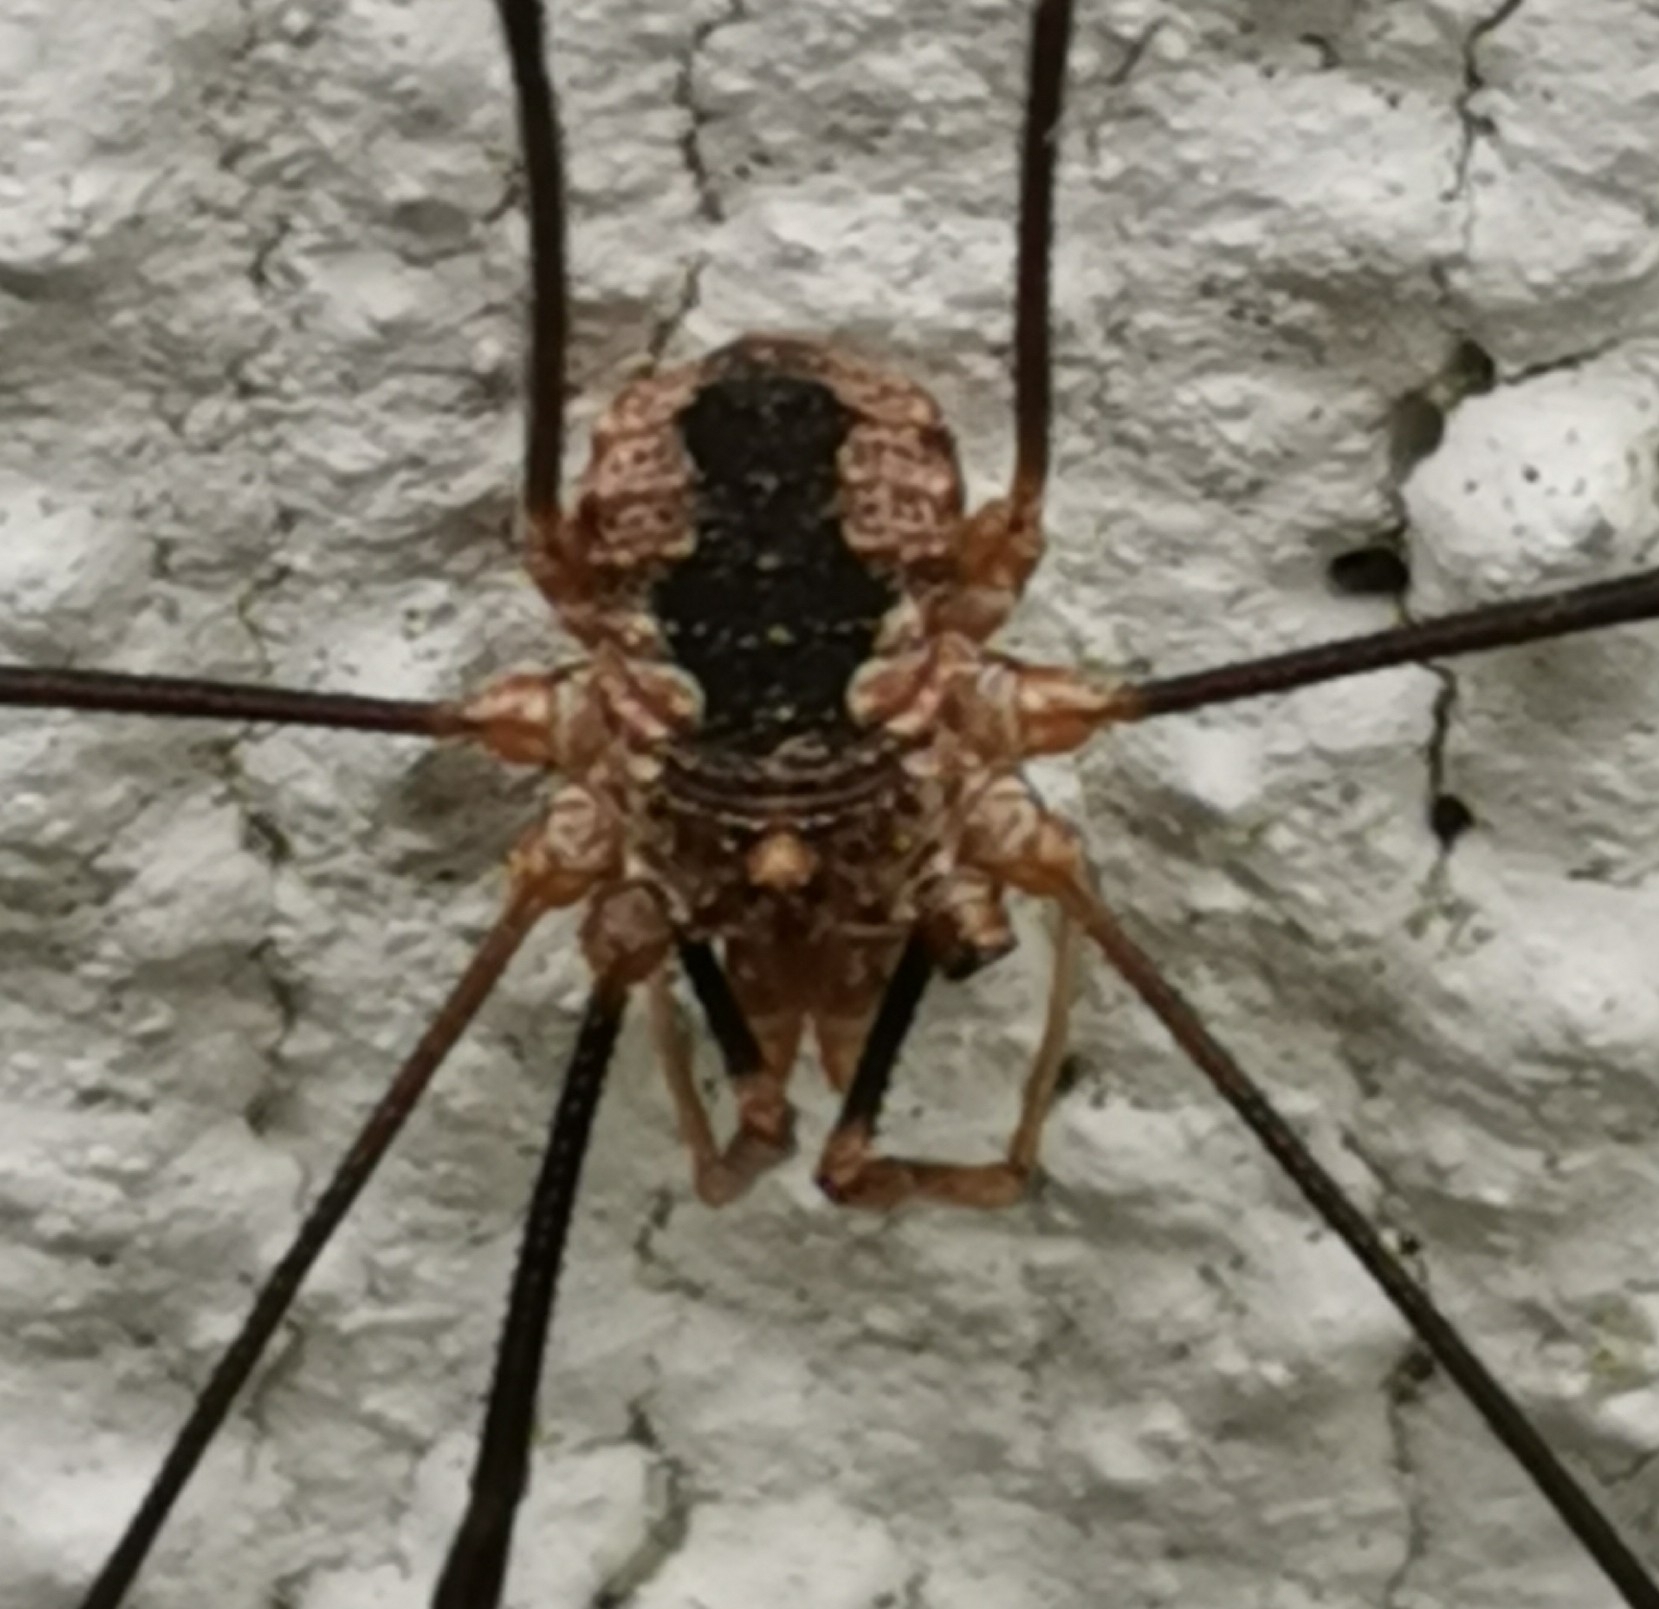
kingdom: Animalia
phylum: Arthropoda
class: Arachnida
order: Opiliones
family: Phalangiidae
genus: Phalangium
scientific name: Phalangium opilio
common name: Daddy longleg
